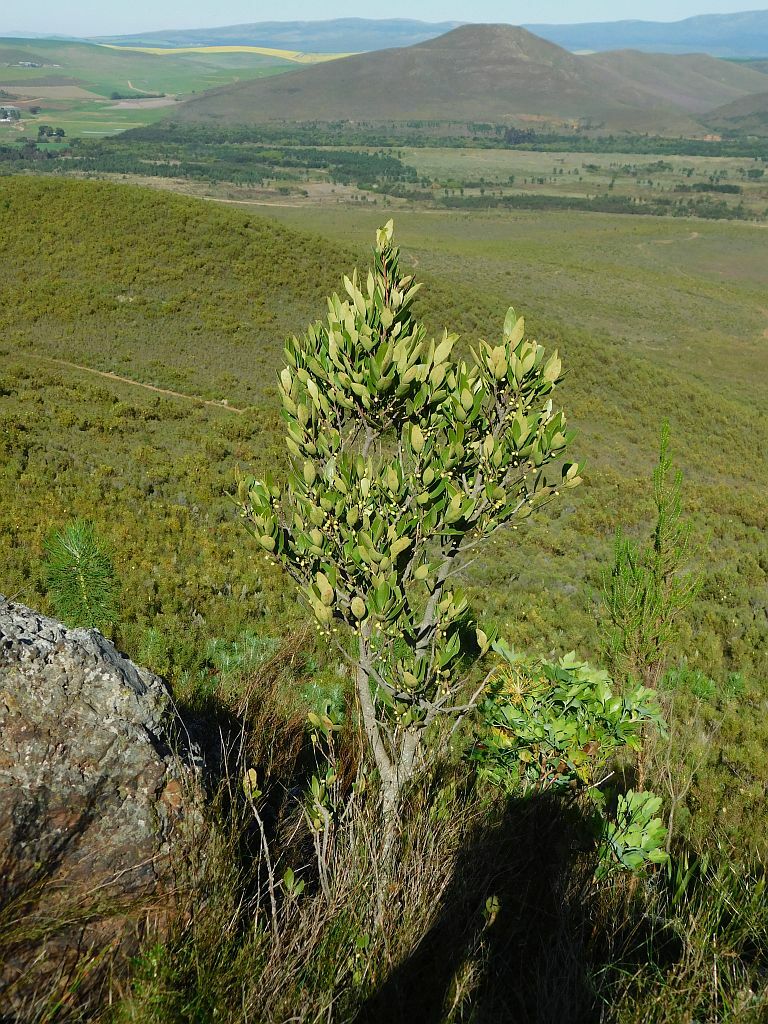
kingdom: Plantae
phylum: Tracheophyta
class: Magnoliopsida
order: Celastrales
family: Celastraceae
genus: Gymnosporia
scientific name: Gymnosporia laurina
